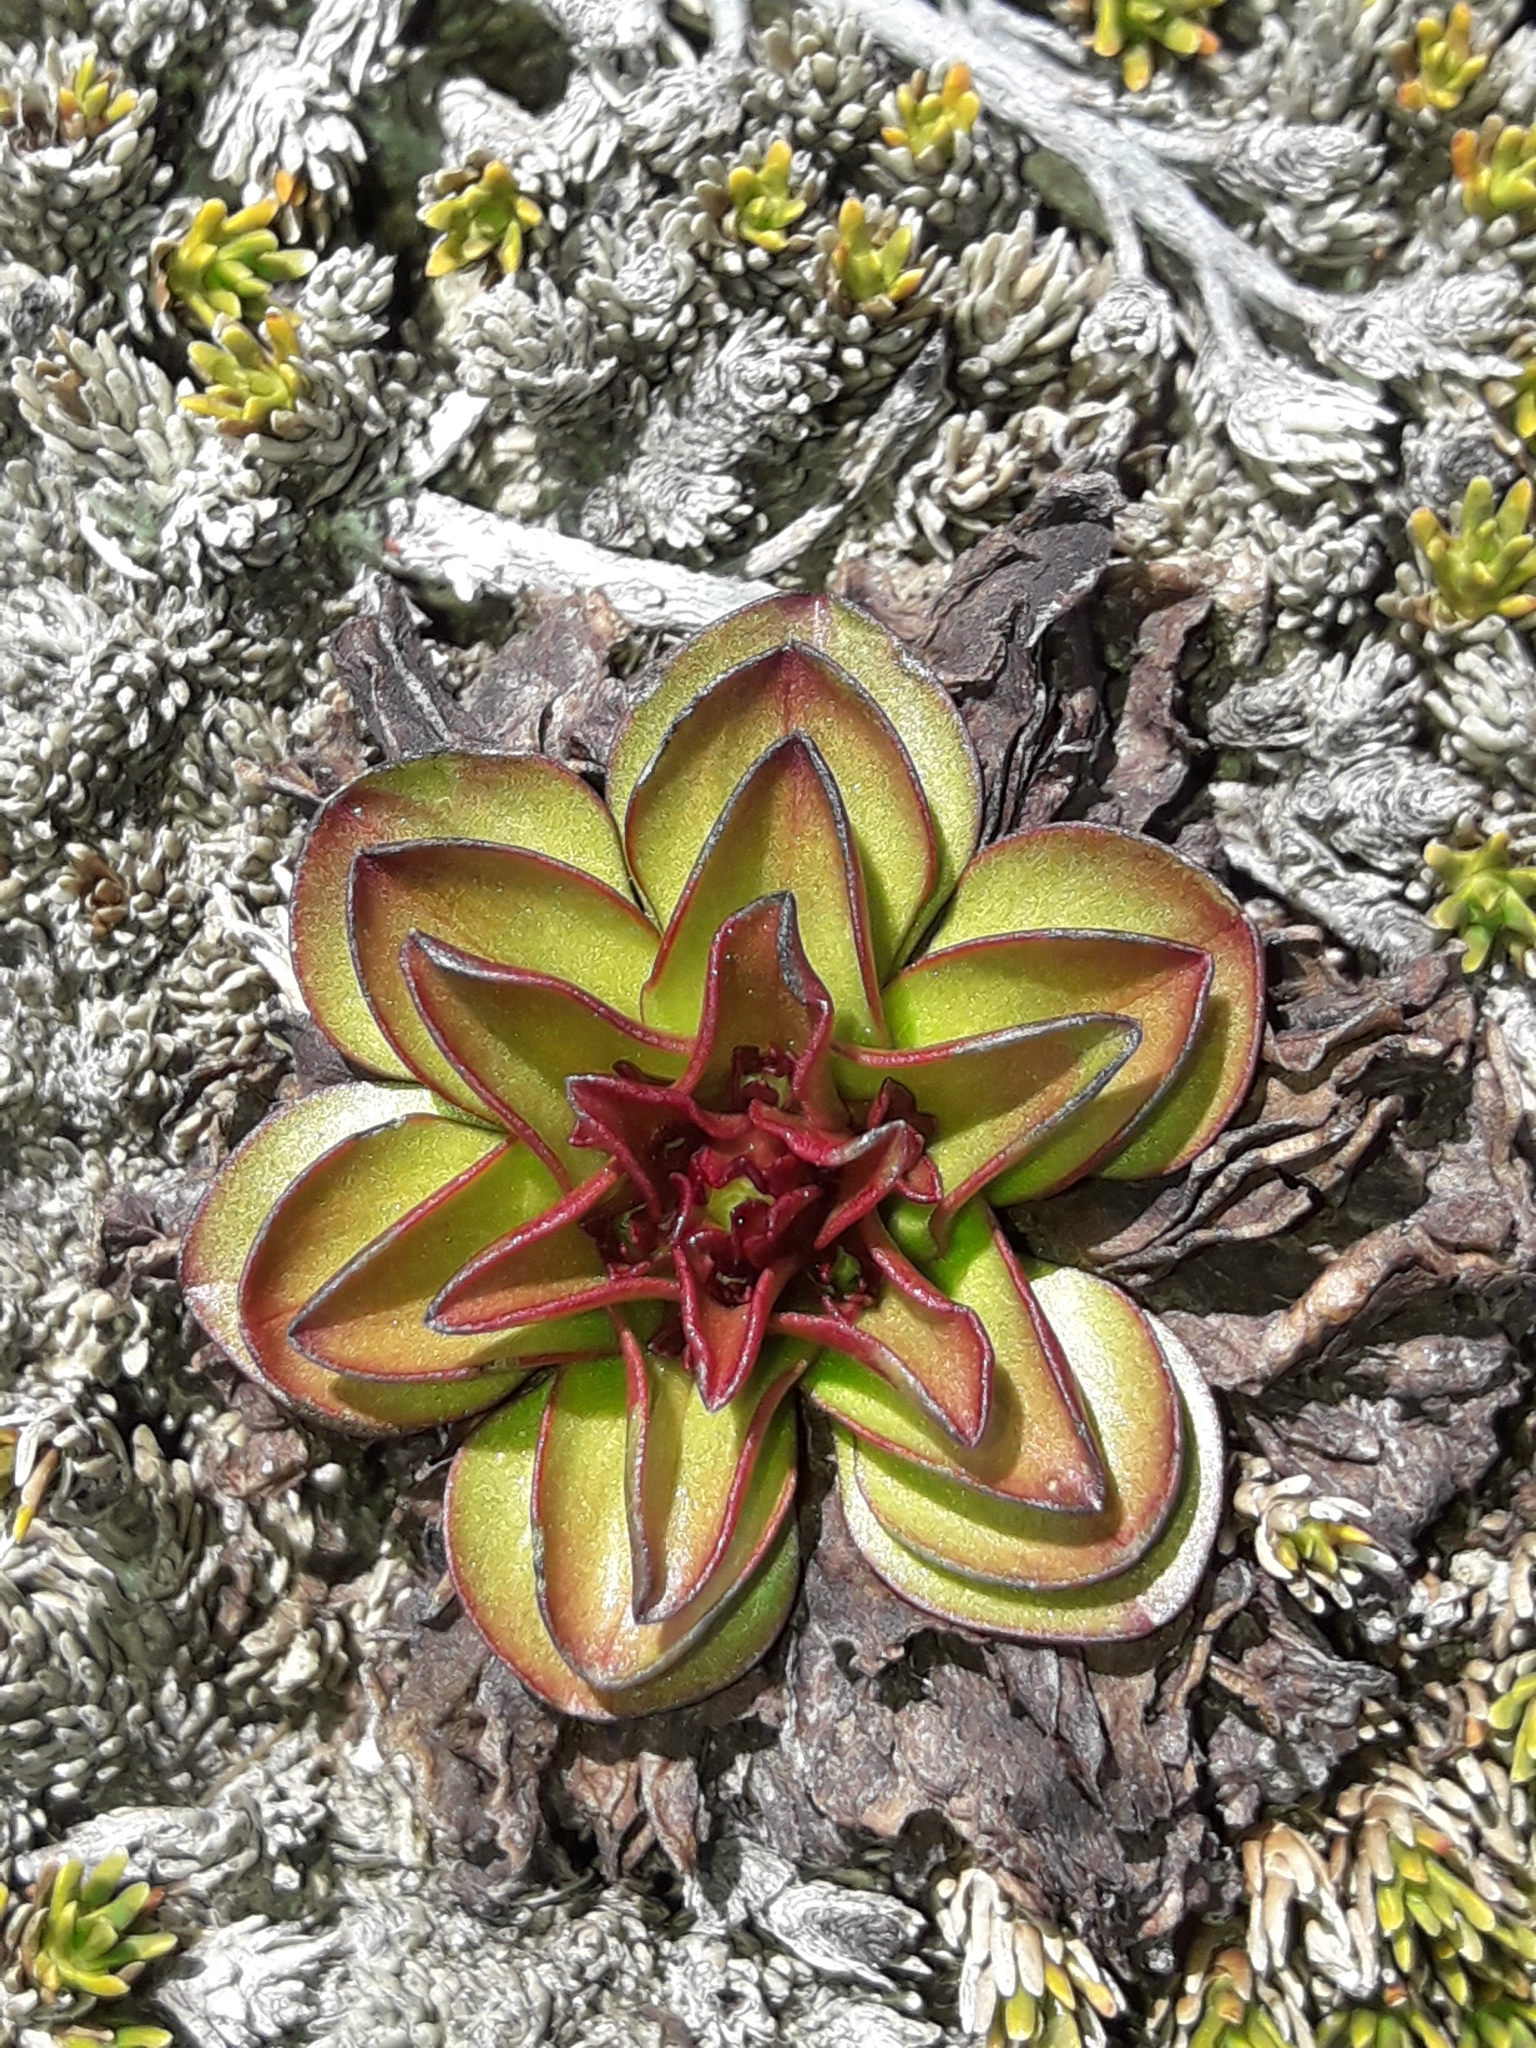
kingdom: Plantae
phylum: Tracheophyta
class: Magnoliopsida
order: Gentianales
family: Gentianaceae
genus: Gentianella
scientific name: Gentianella divisa
